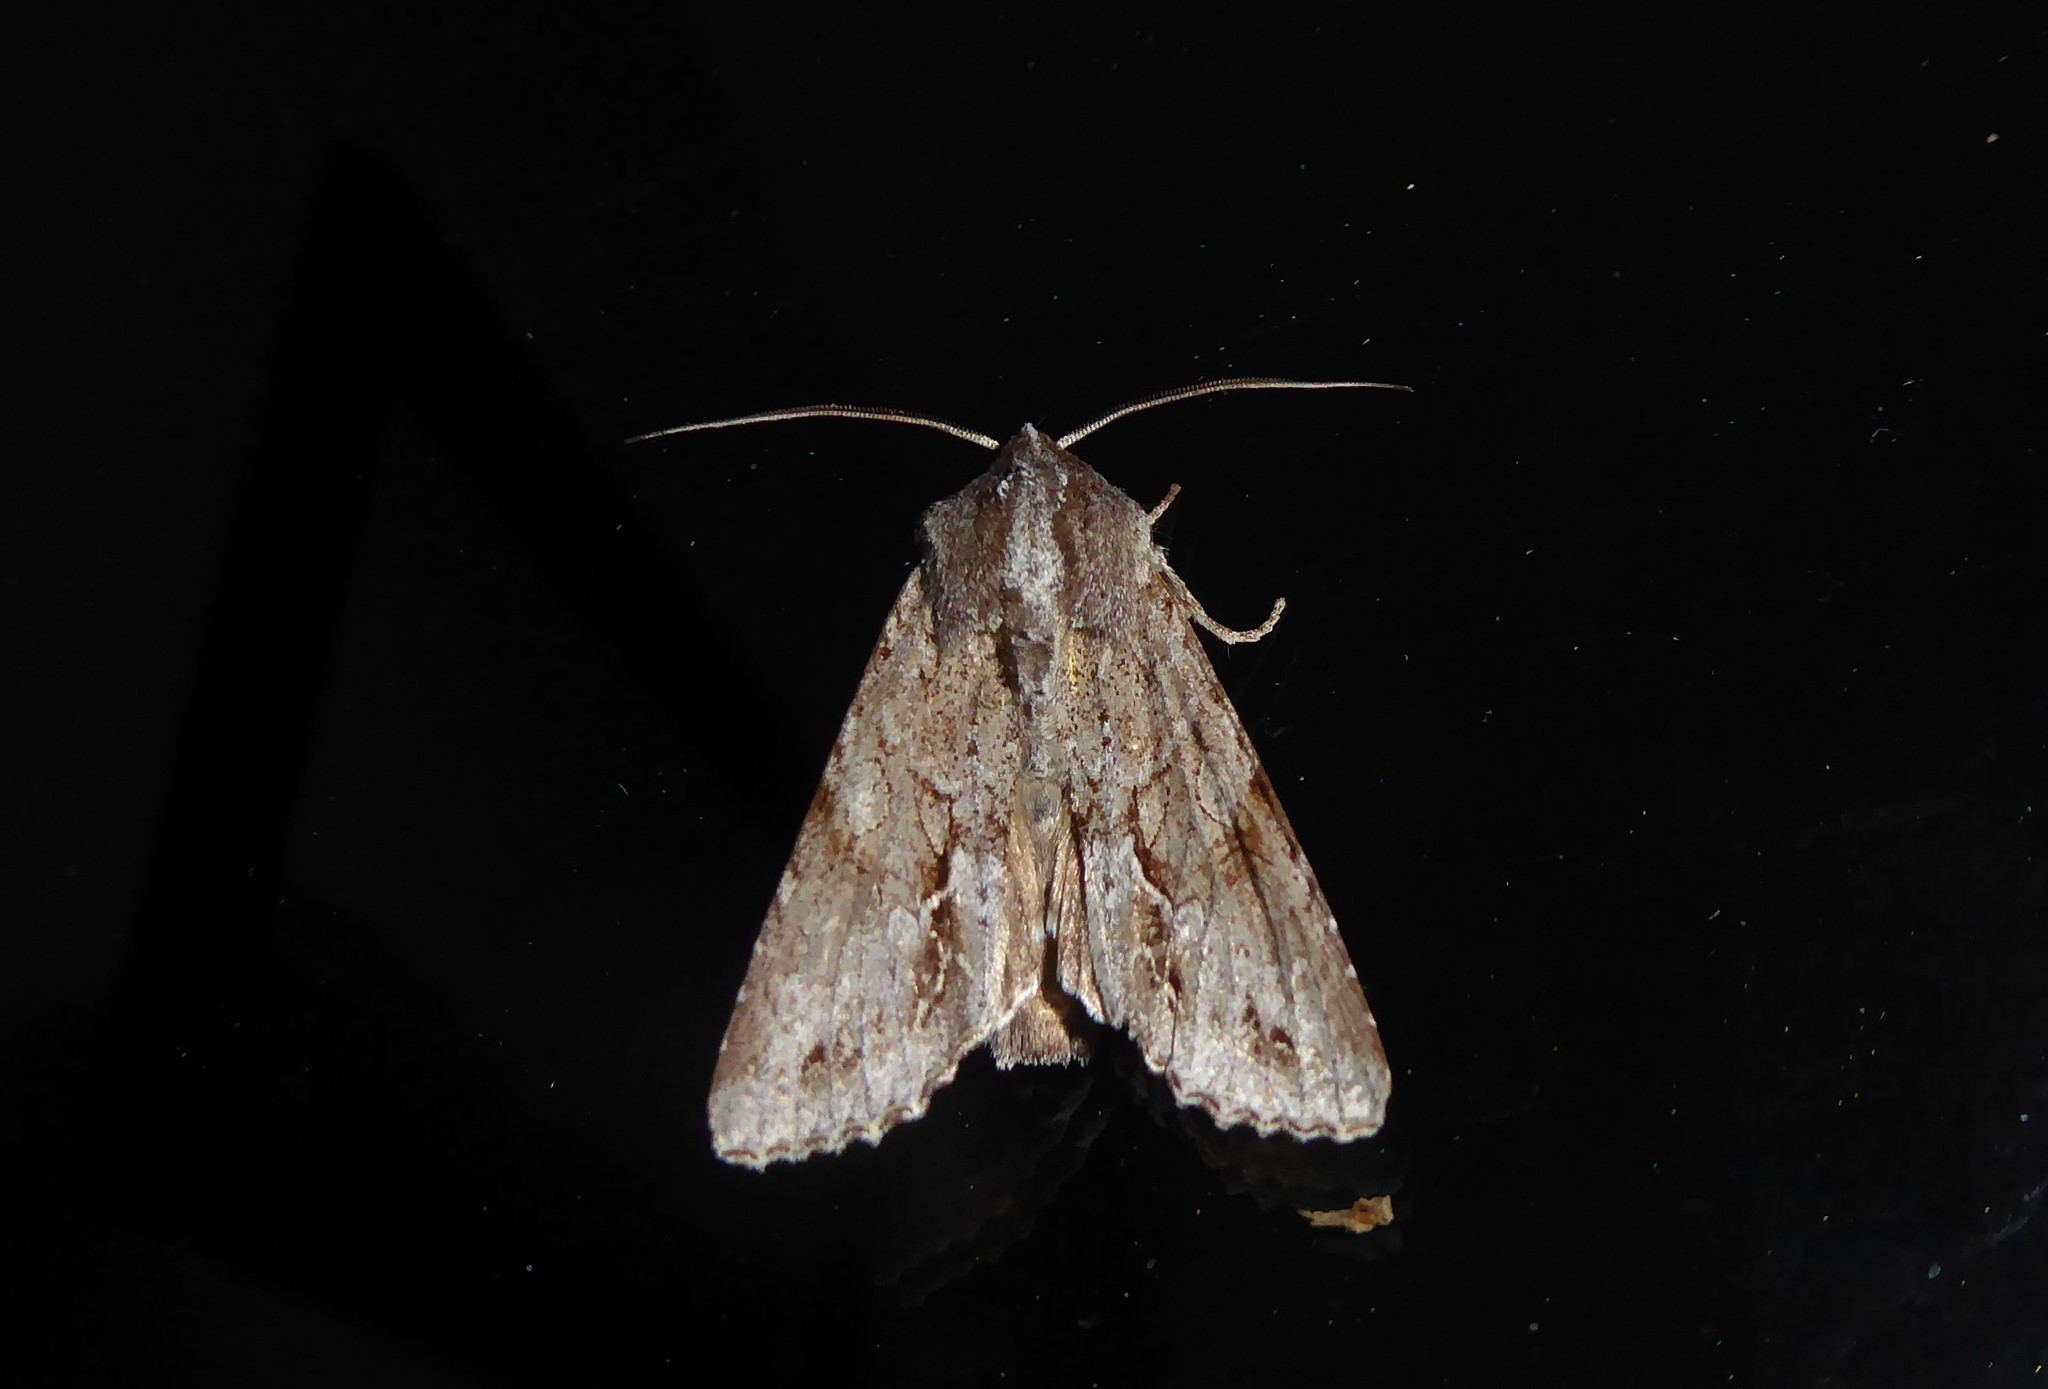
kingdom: Animalia
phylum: Arthropoda
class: Insecta
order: Lepidoptera
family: Noctuidae
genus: Ichneutica
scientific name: Ichneutica
